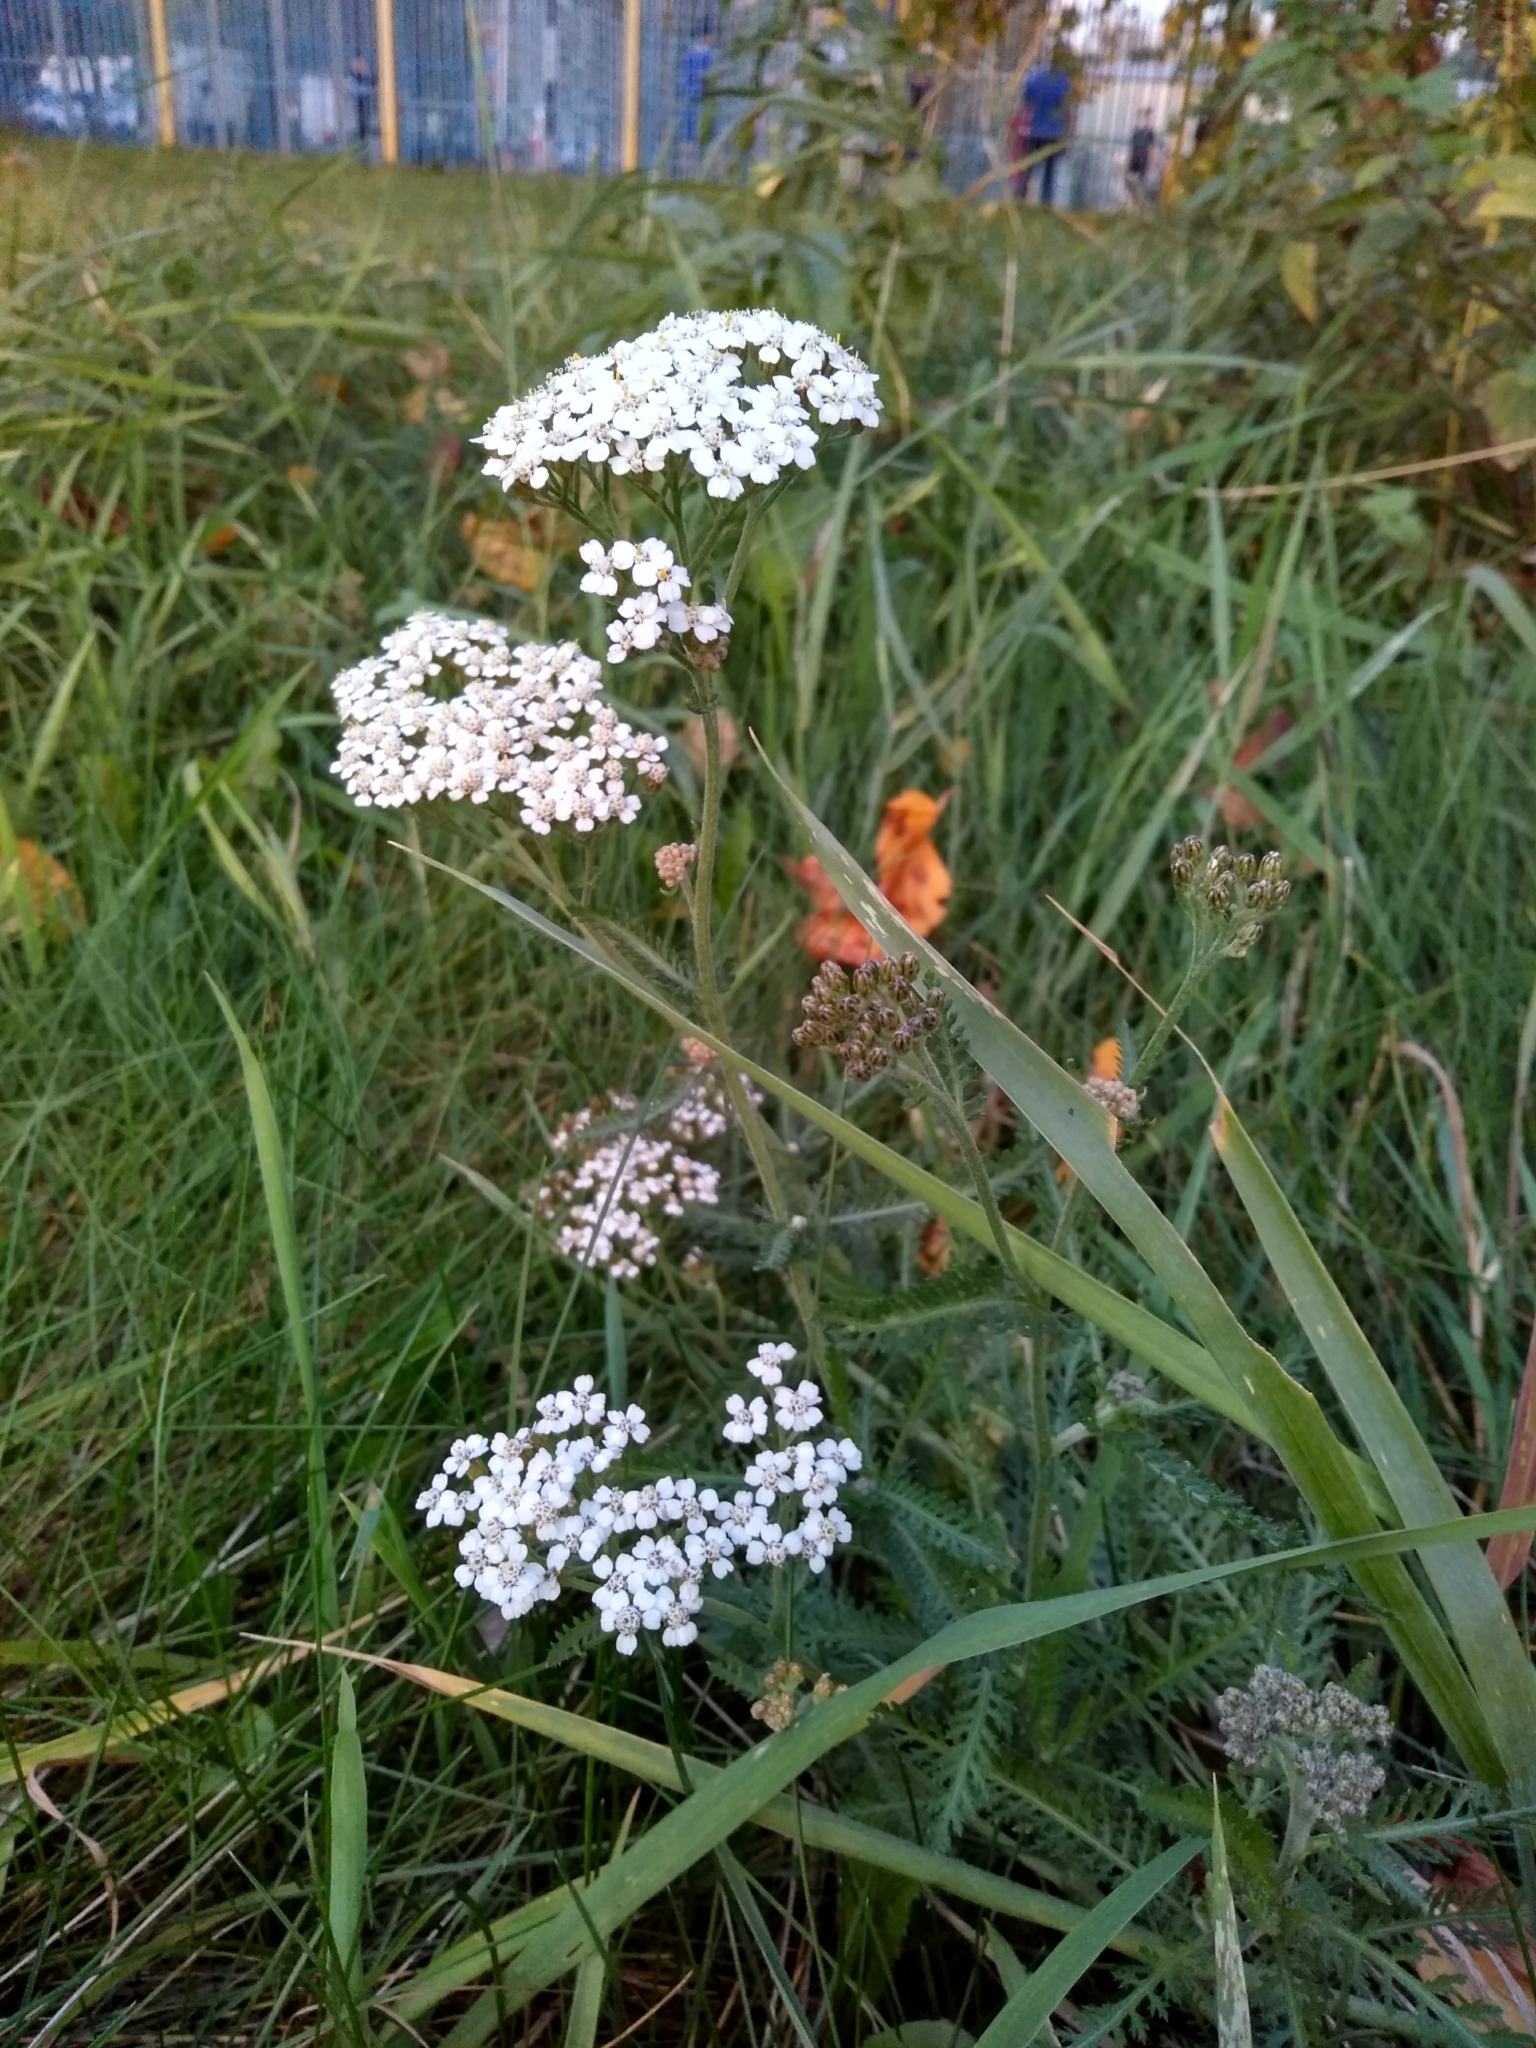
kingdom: Plantae
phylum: Tracheophyta
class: Magnoliopsida
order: Asterales
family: Asteraceae
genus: Achillea
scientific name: Achillea millefolium
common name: Yarrow
